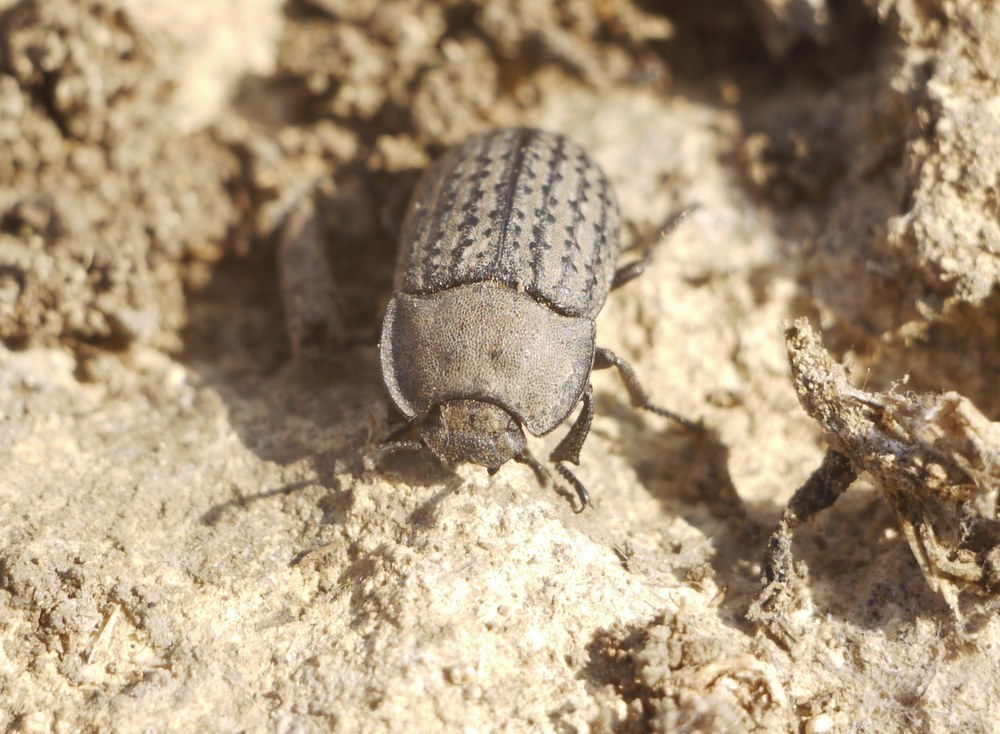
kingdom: Animalia
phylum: Arthropoda
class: Insecta
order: Coleoptera
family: Tenebrionidae
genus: Opatrum
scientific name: Opatrum sabulosum
